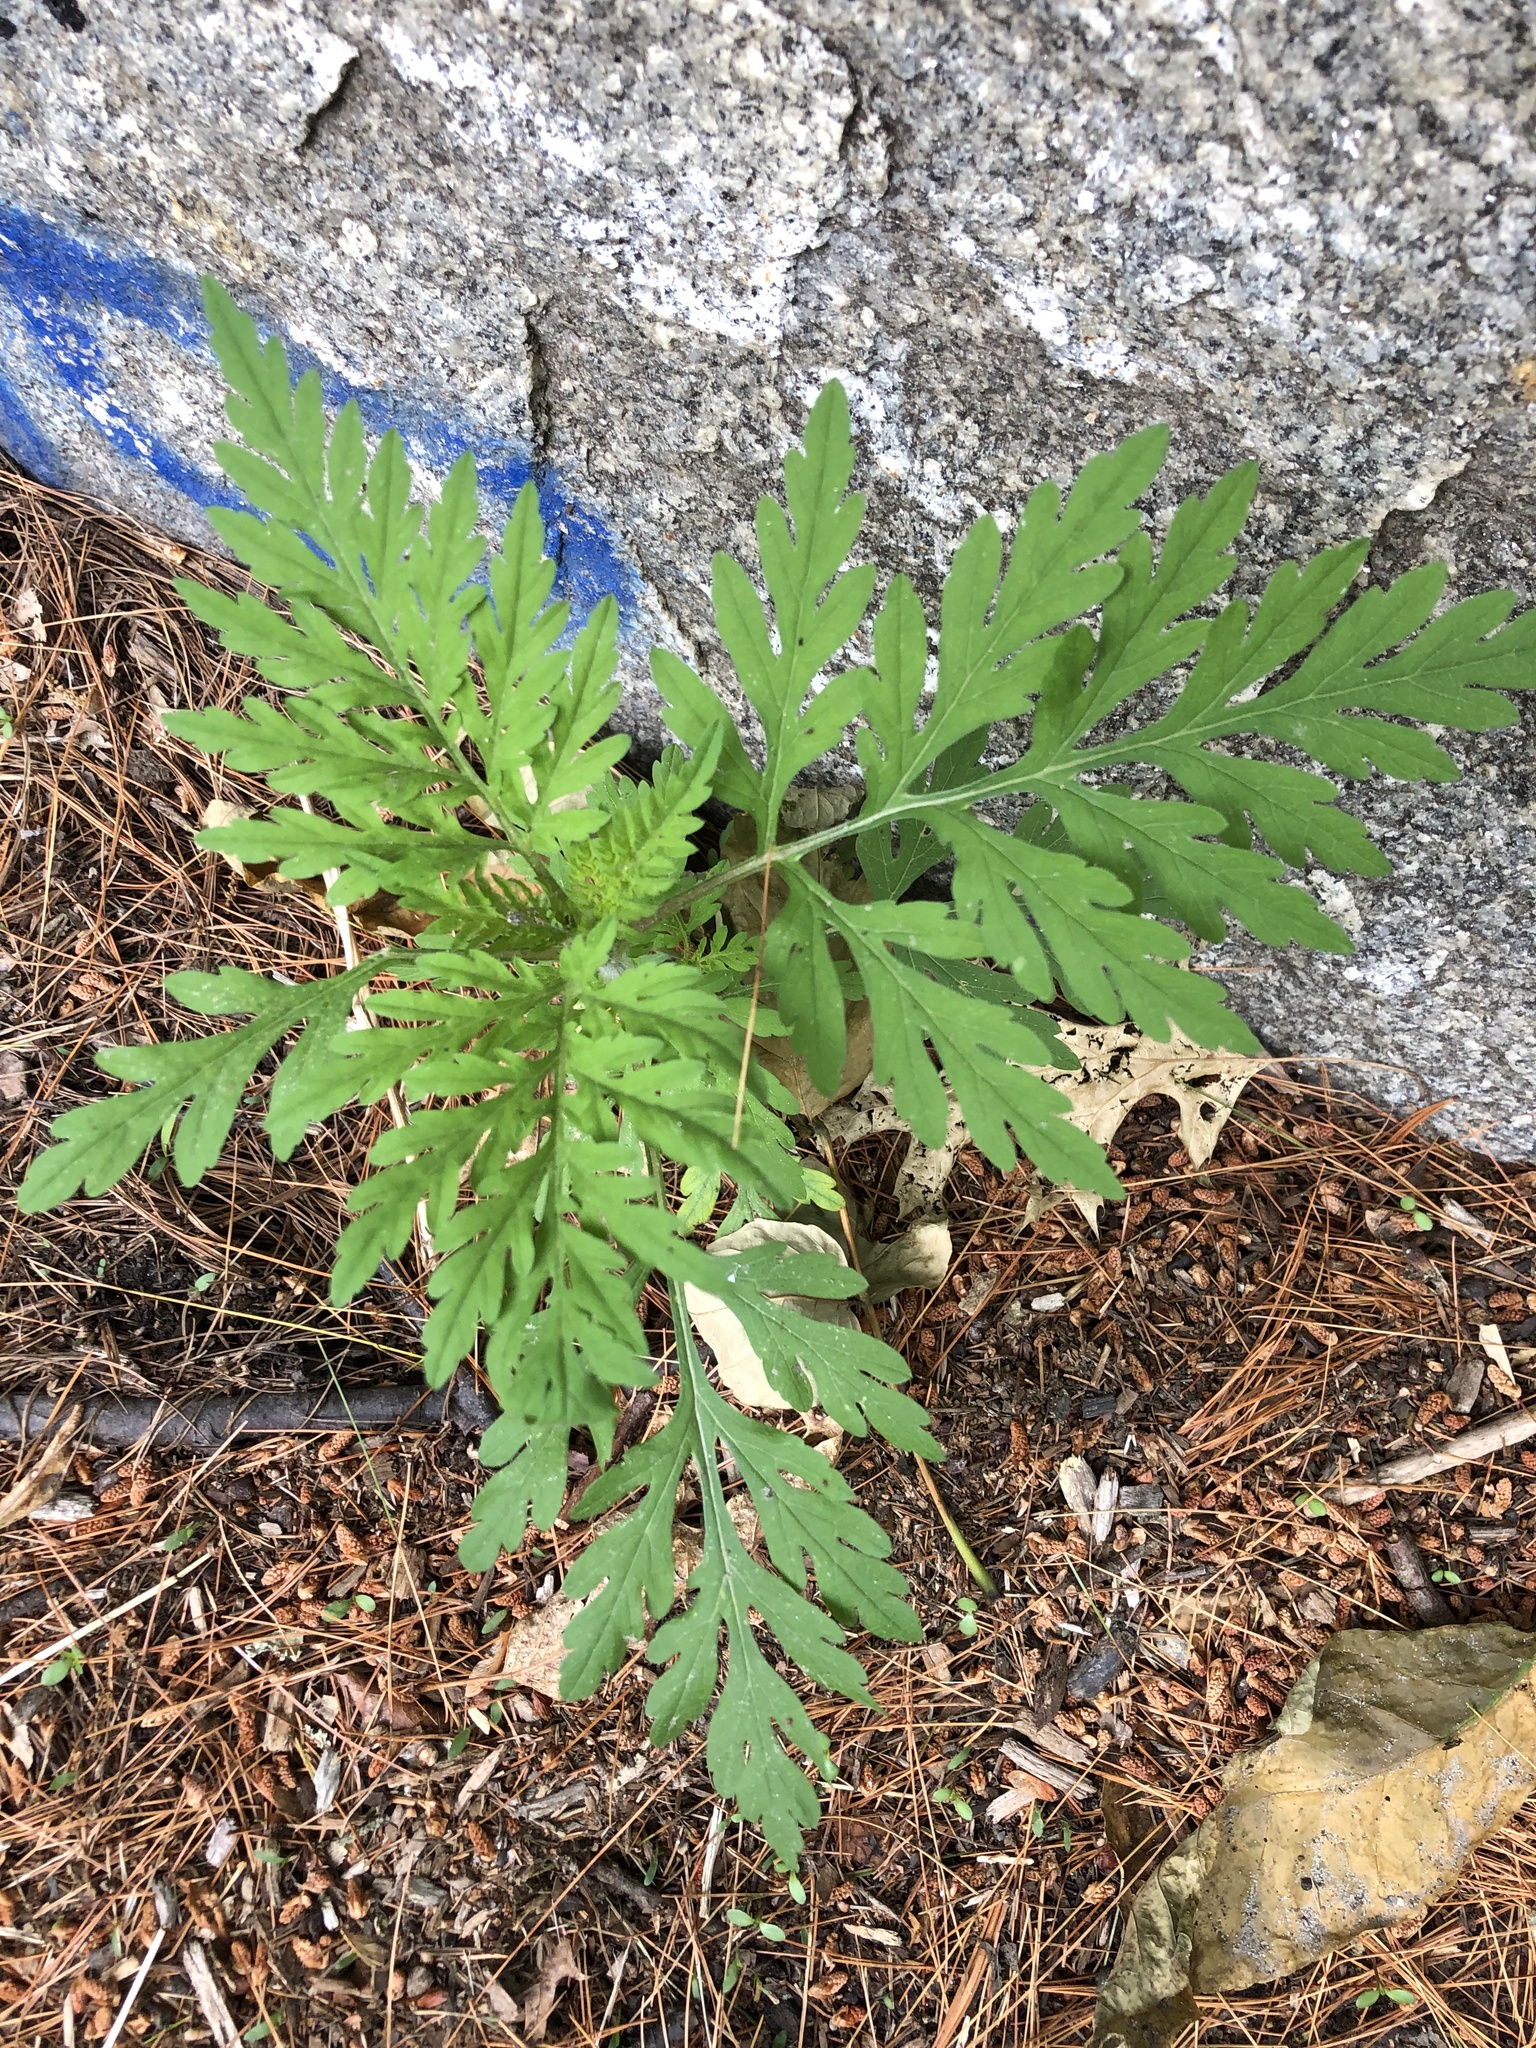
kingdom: Plantae
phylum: Tracheophyta
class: Magnoliopsida
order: Asterales
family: Asteraceae
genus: Ambrosia
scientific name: Ambrosia artemisiifolia
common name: Annual ragweed
